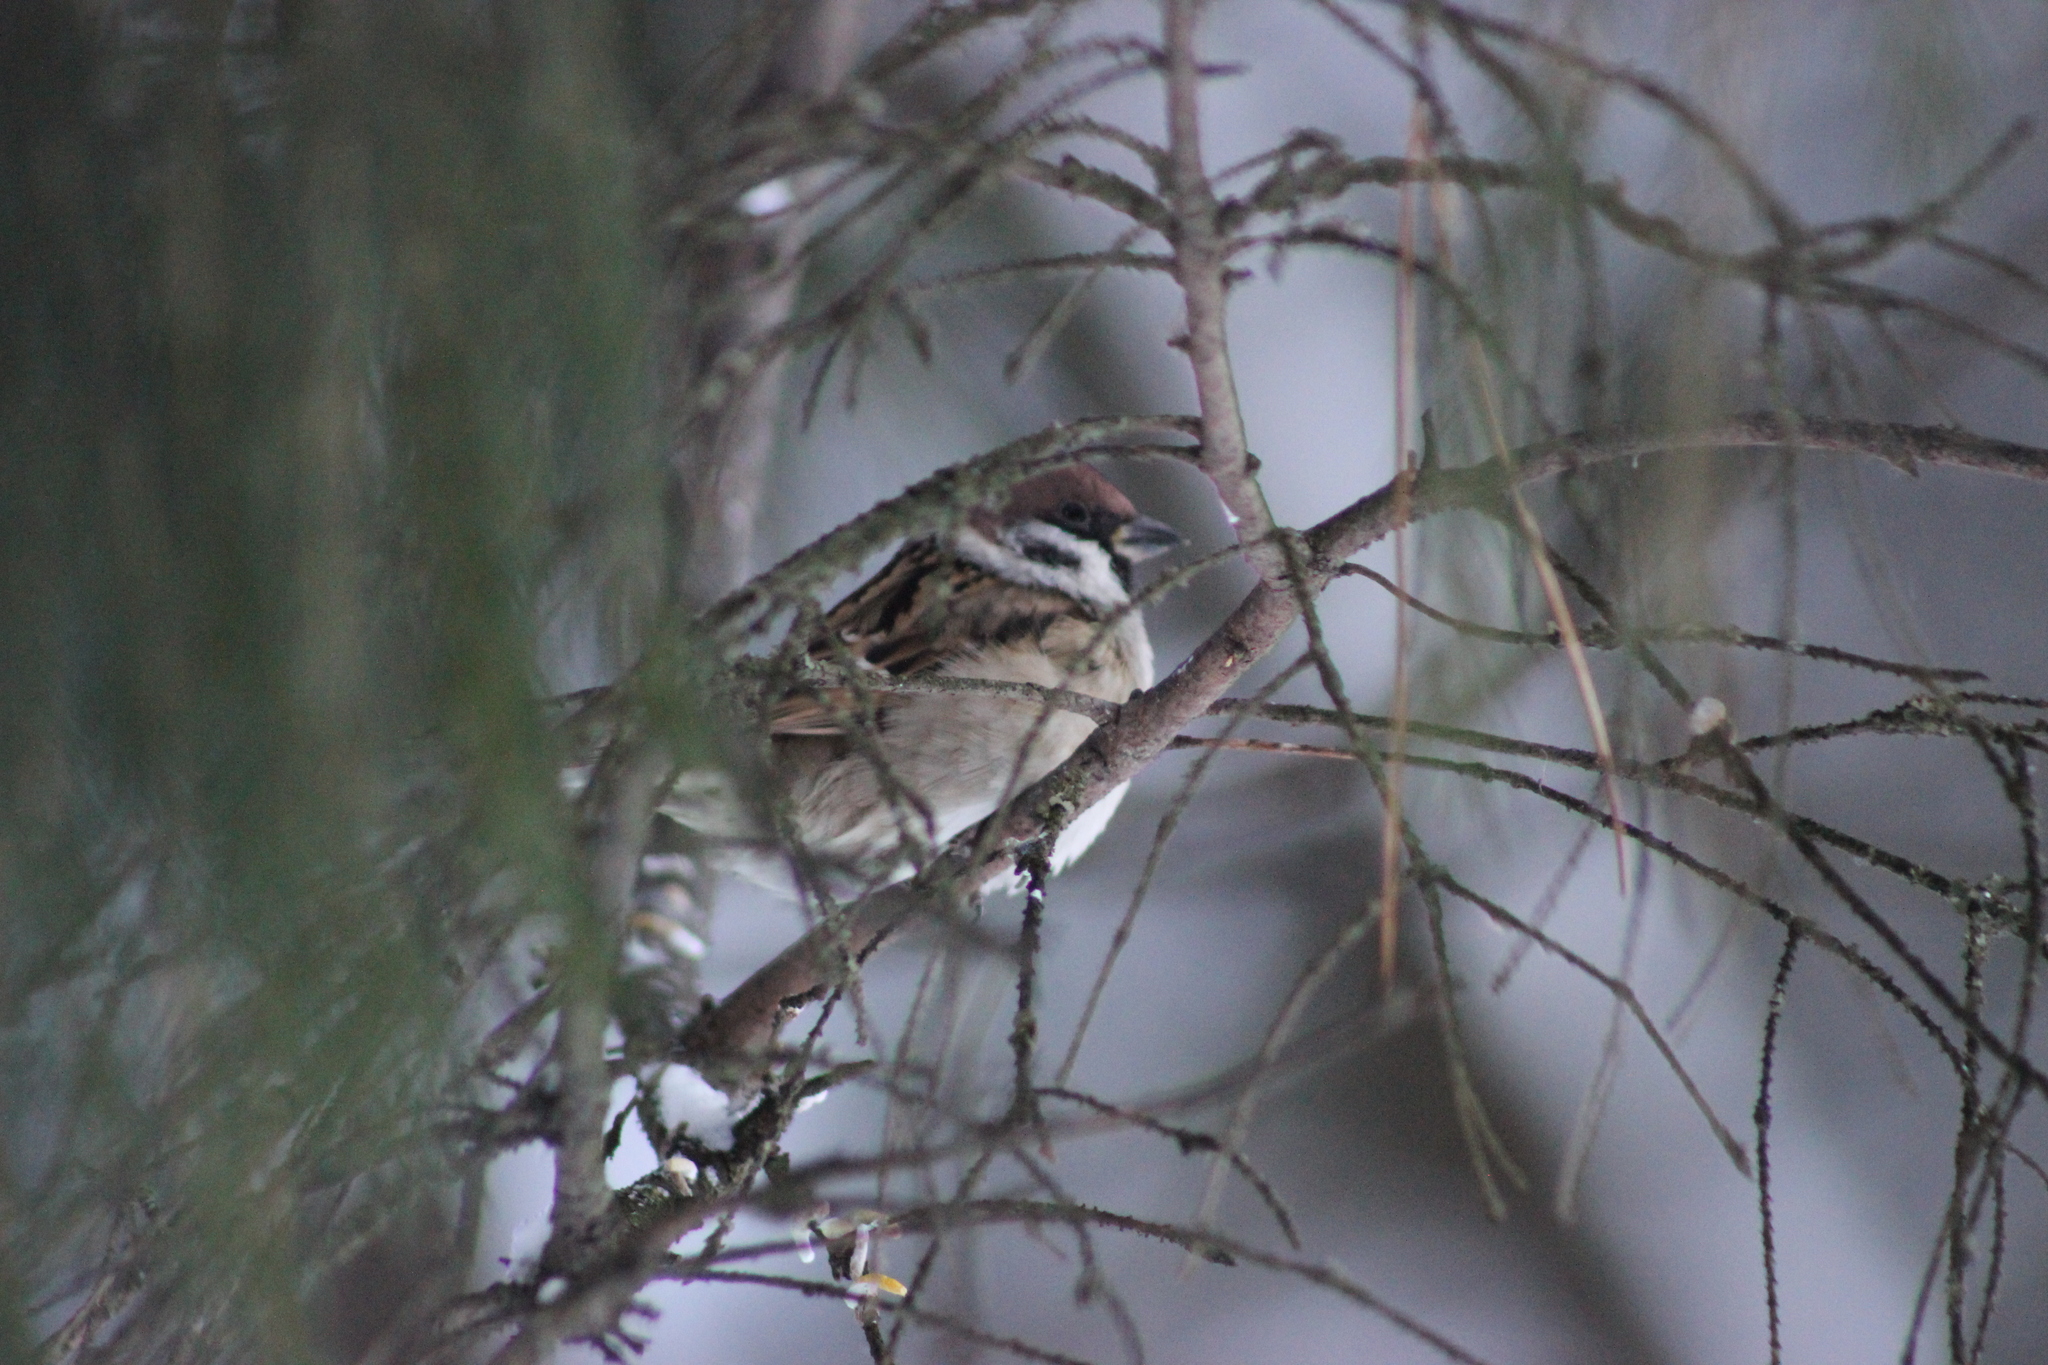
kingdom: Animalia
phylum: Chordata
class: Aves
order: Passeriformes
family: Passeridae
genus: Passer
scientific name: Passer montanus
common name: Eurasian tree sparrow
